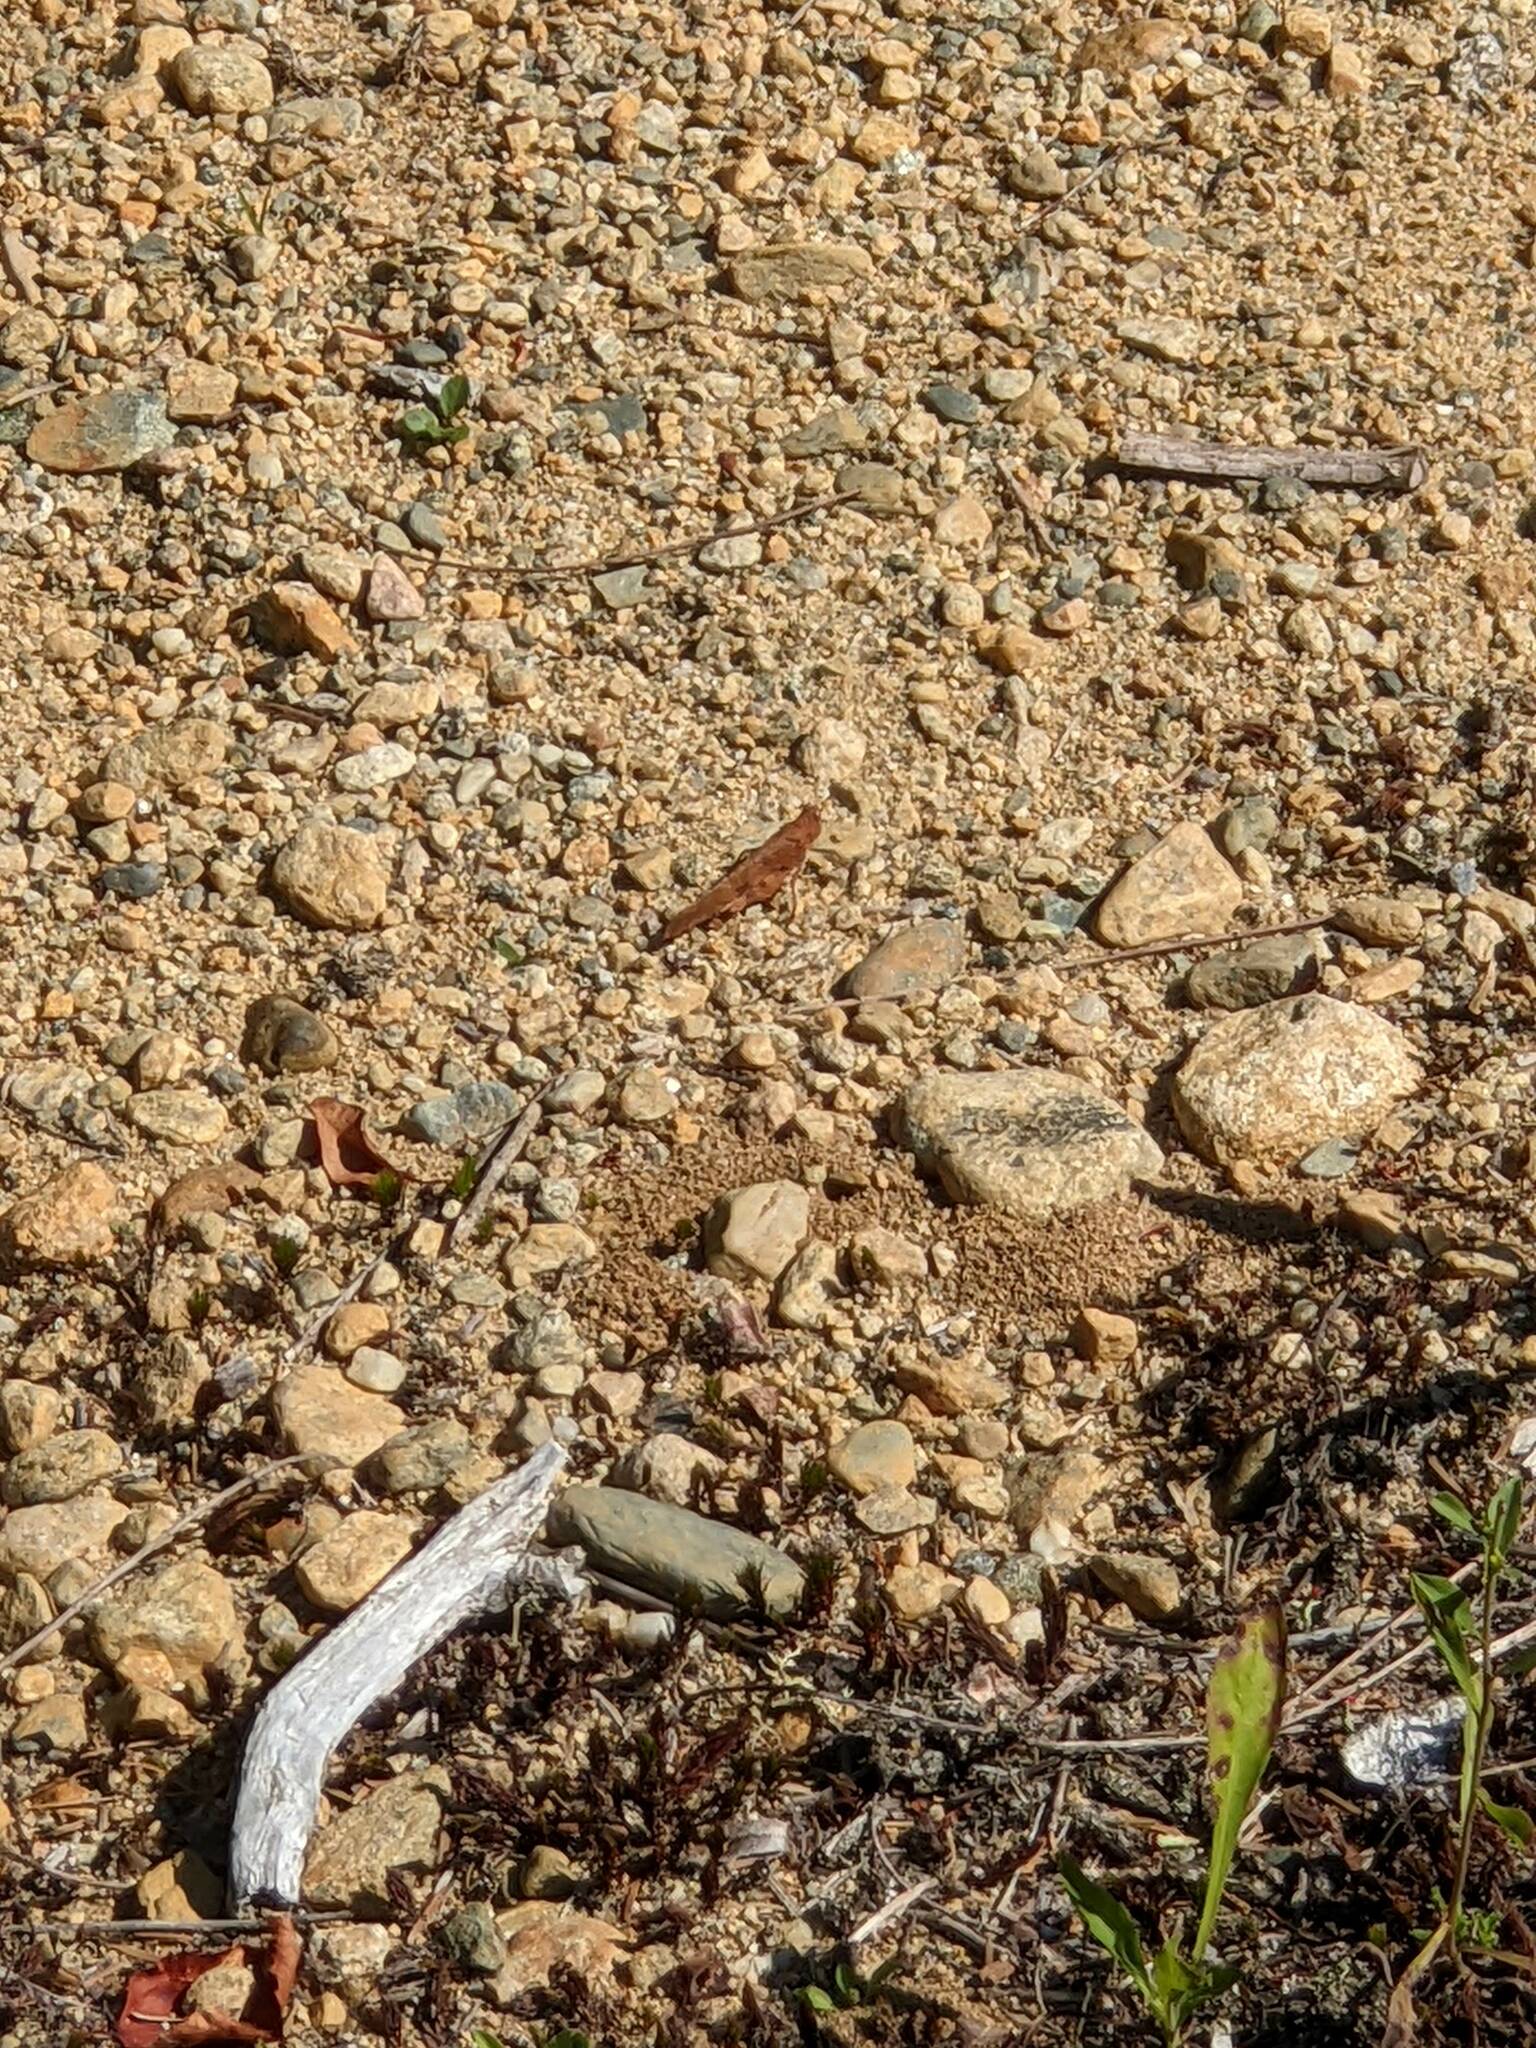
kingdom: Animalia
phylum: Arthropoda
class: Insecta
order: Orthoptera
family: Acrididae
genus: Dissosteira
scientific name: Dissosteira carolina
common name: Carolina grasshopper
